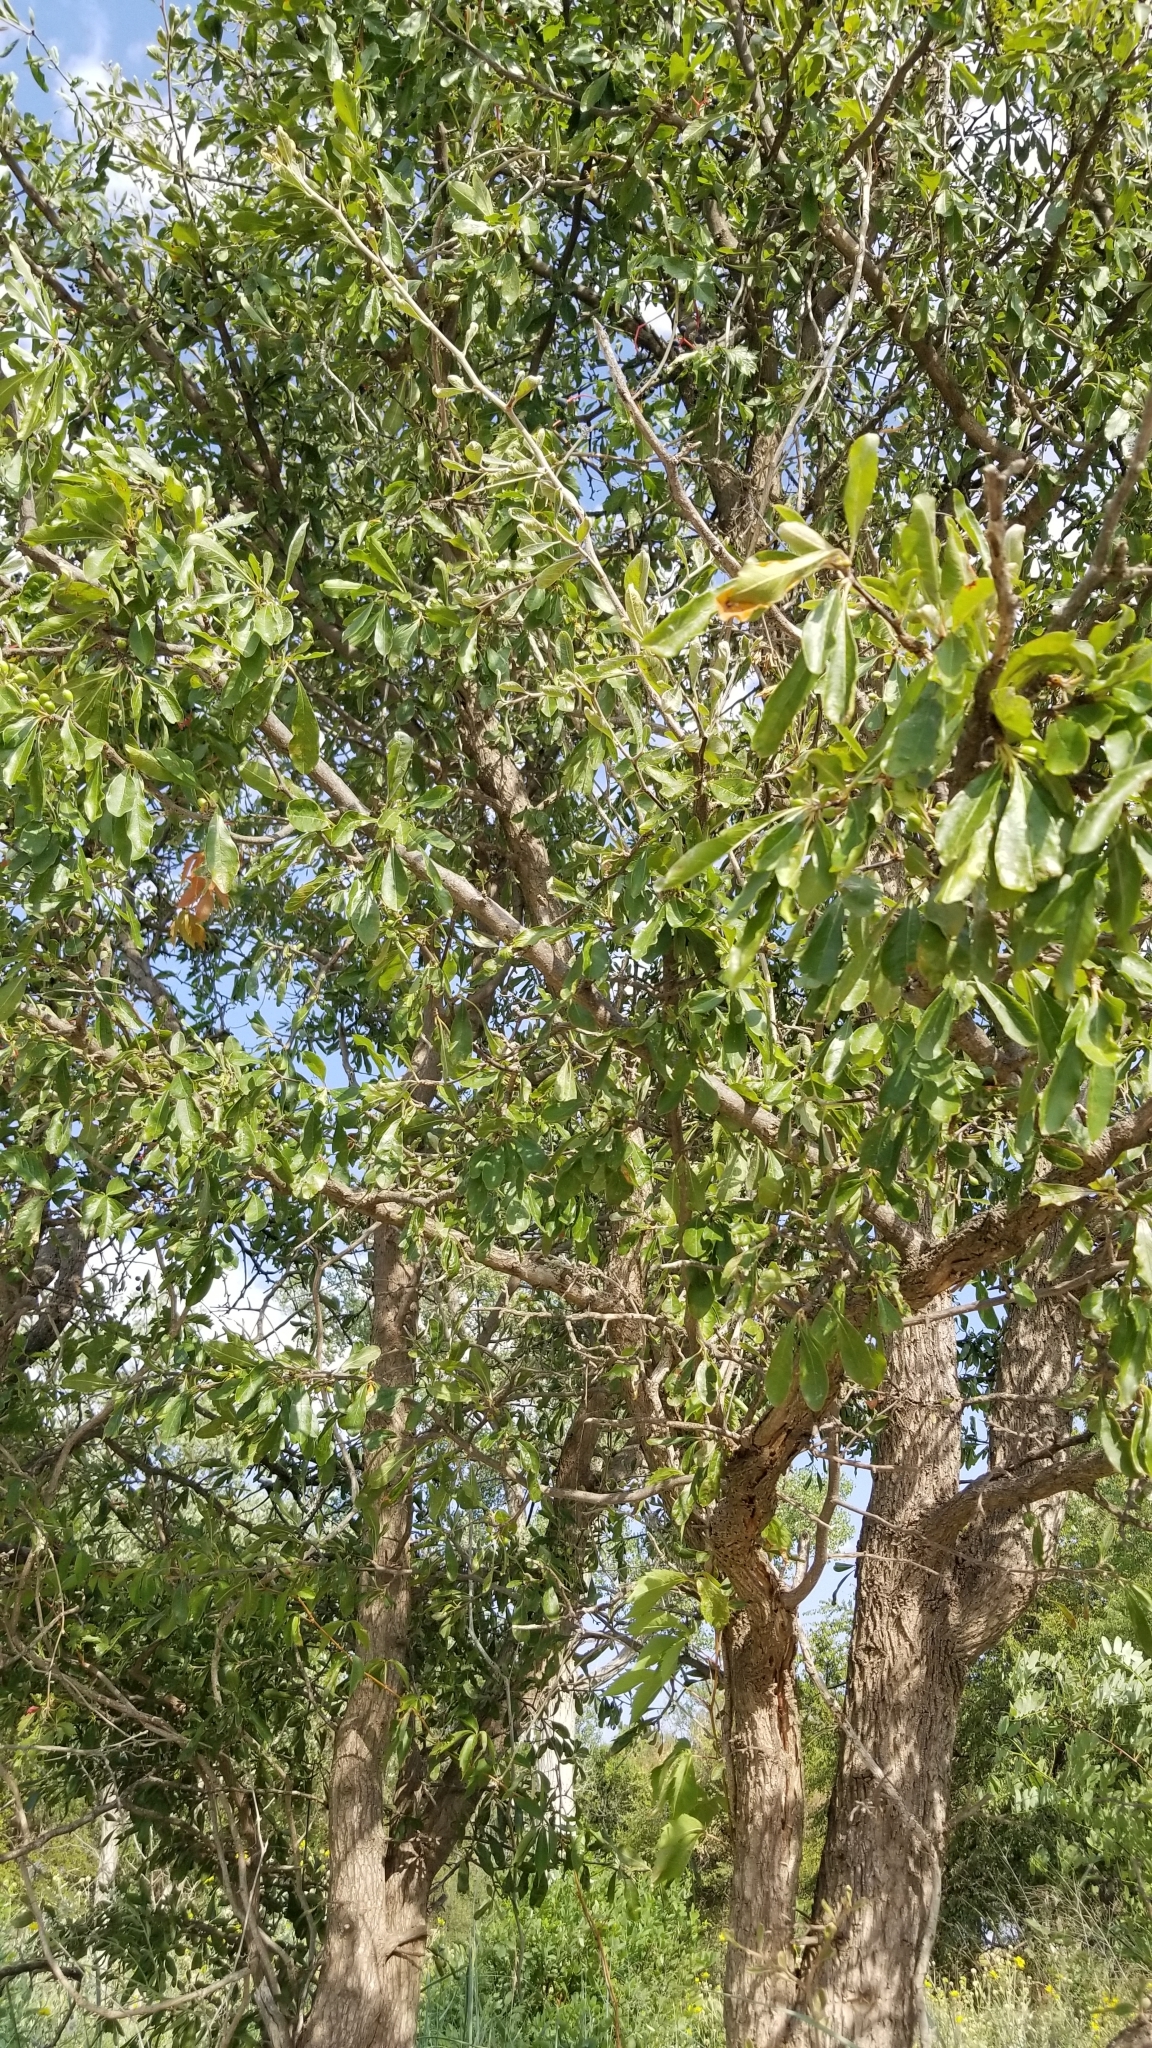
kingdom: Plantae
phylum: Tracheophyta
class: Magnoliopsida
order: Ericales
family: Sapotaceae
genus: Sideroxylon
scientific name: Sideroxylon lanuginosum
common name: Chittamwood
